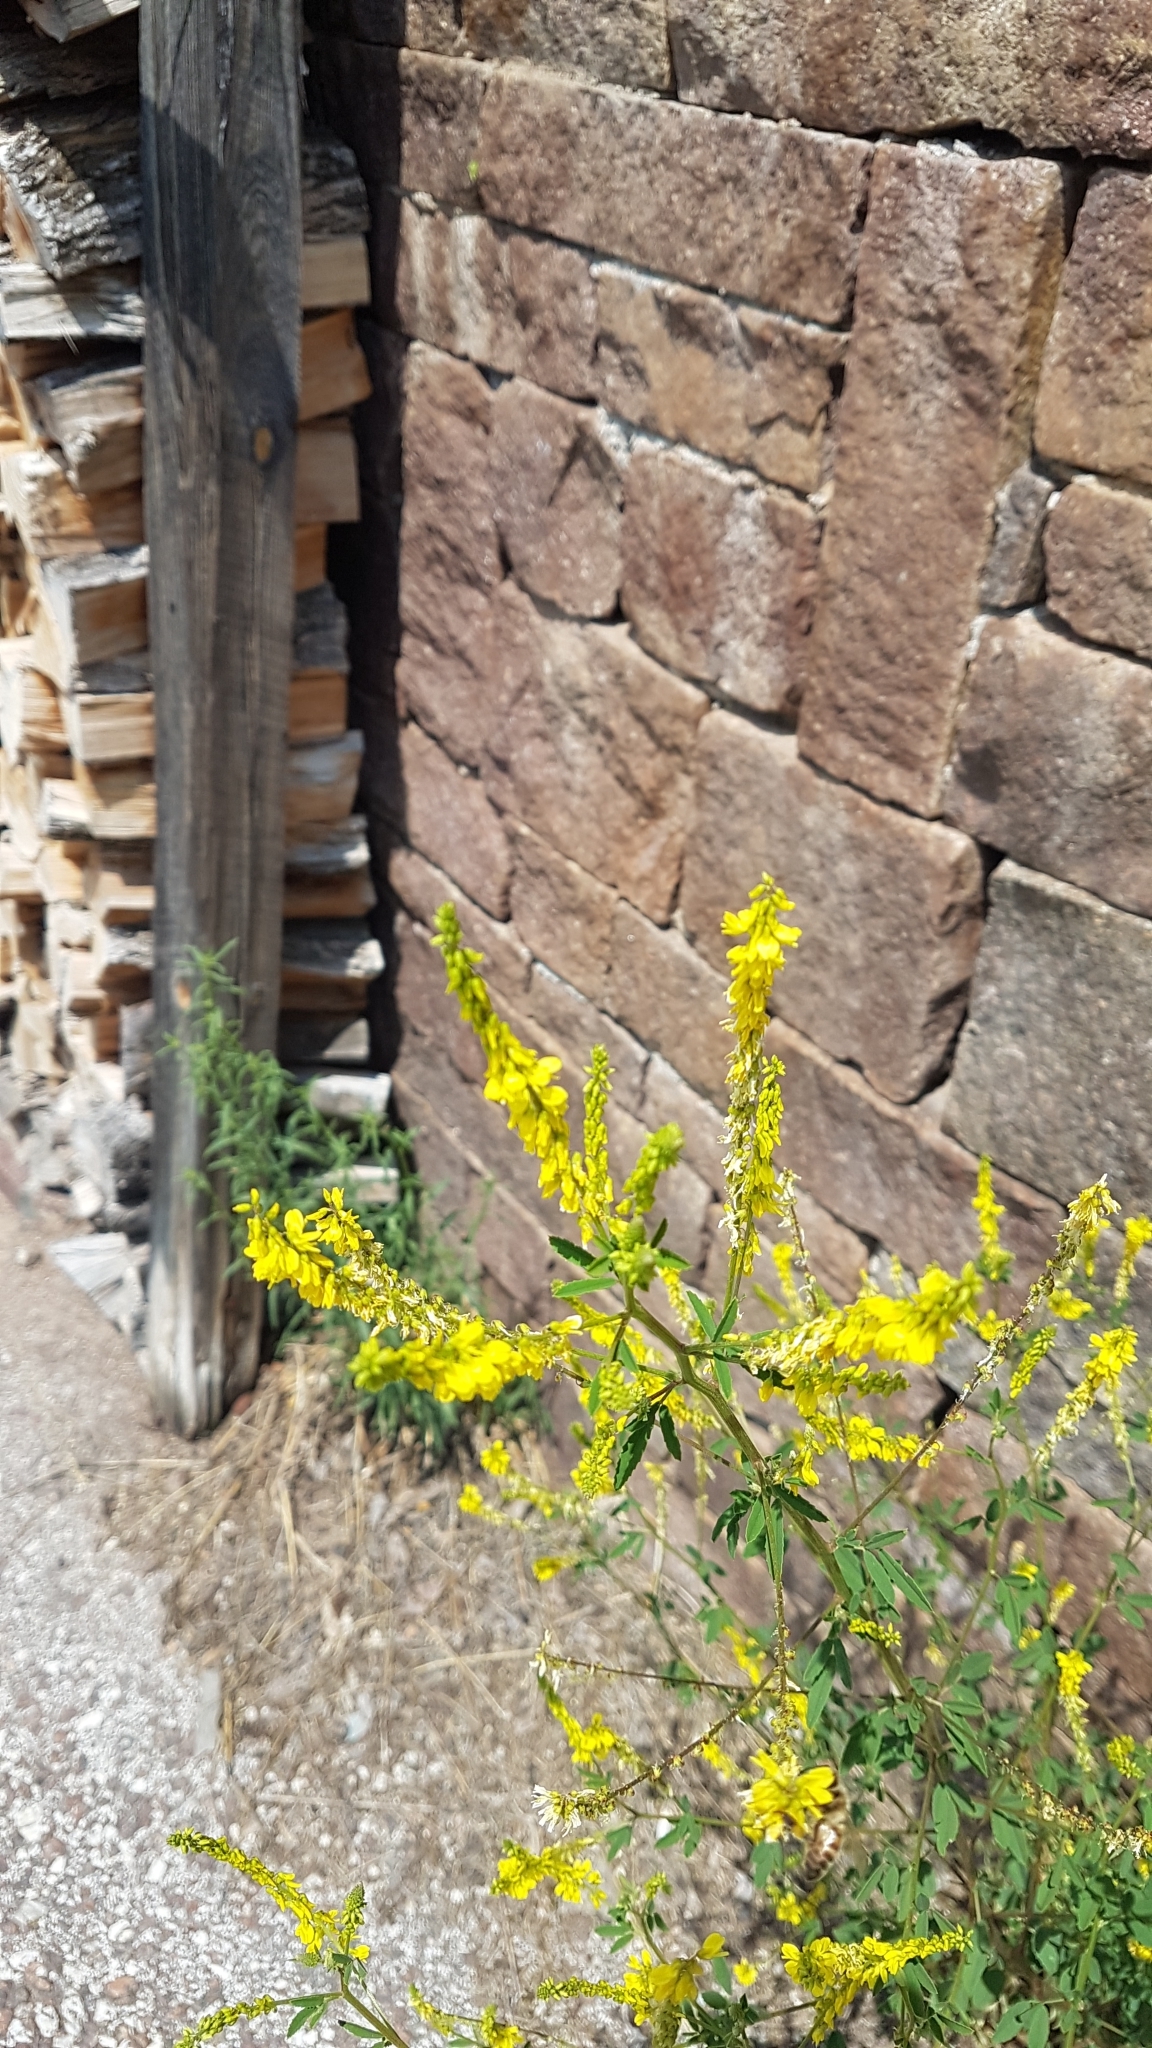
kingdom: Plantae
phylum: Tracheophyta
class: Magnoliopsida
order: Fabales
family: Fabaceae
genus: Melilotus
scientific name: Melilotus officinalis
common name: Sweetclover
